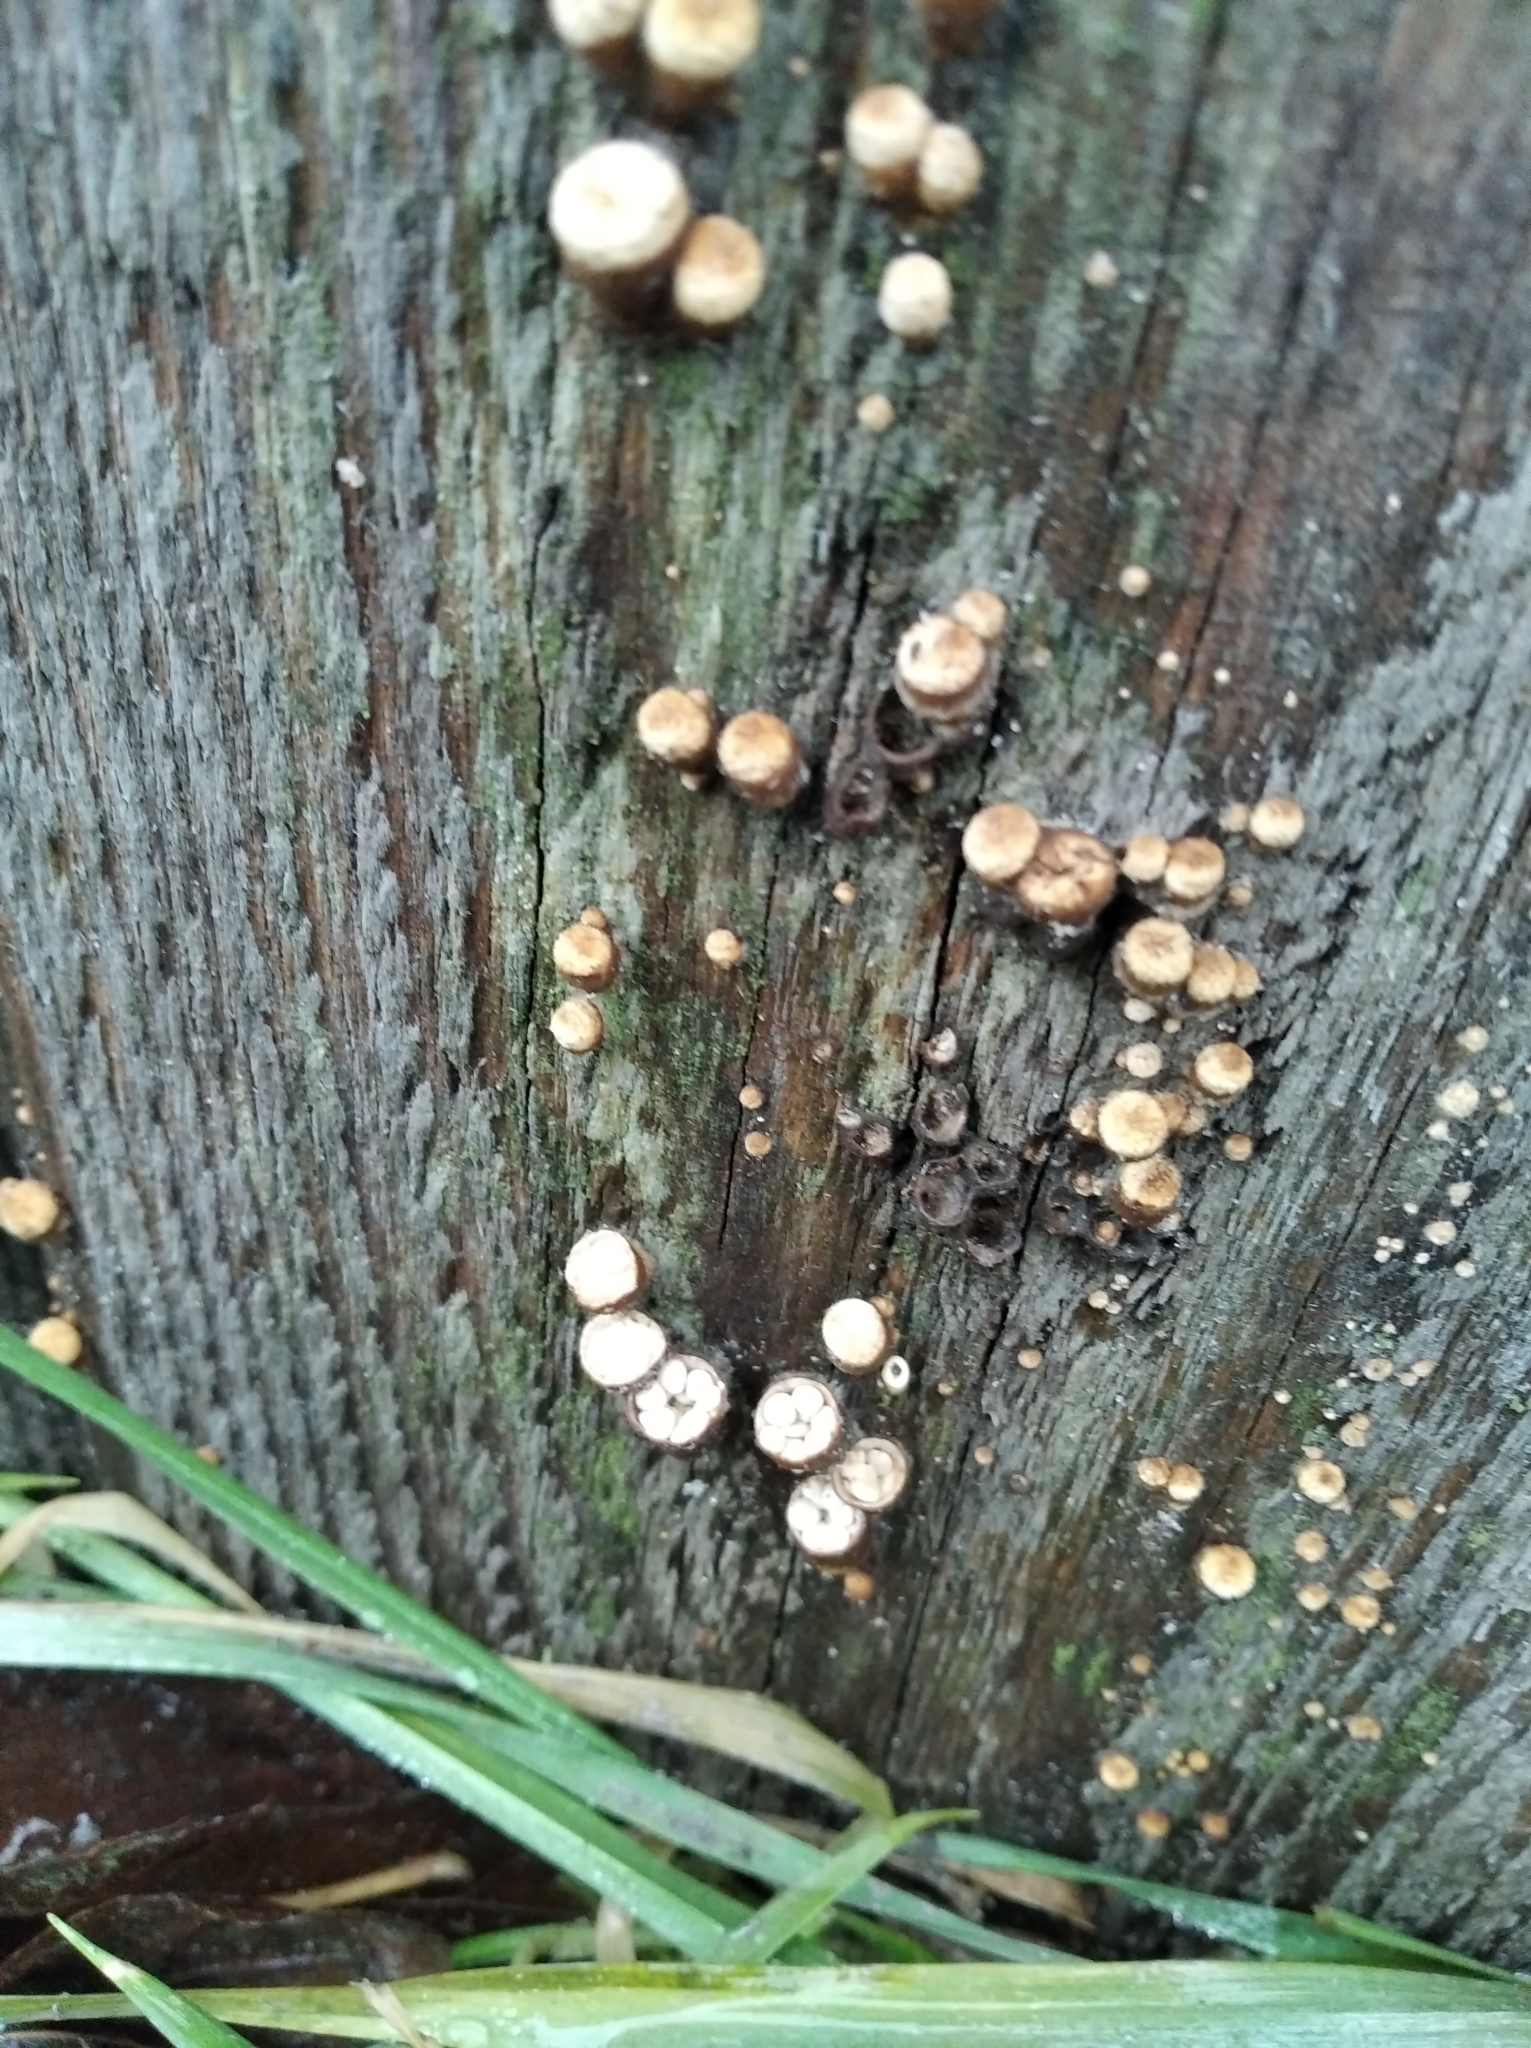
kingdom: Fungi
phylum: Basidiomycota
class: Agaricomycetes
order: Agaricales
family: Nidulariaceae
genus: Crucibulum
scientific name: Crucibulum laeve
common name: Common bird's nest
